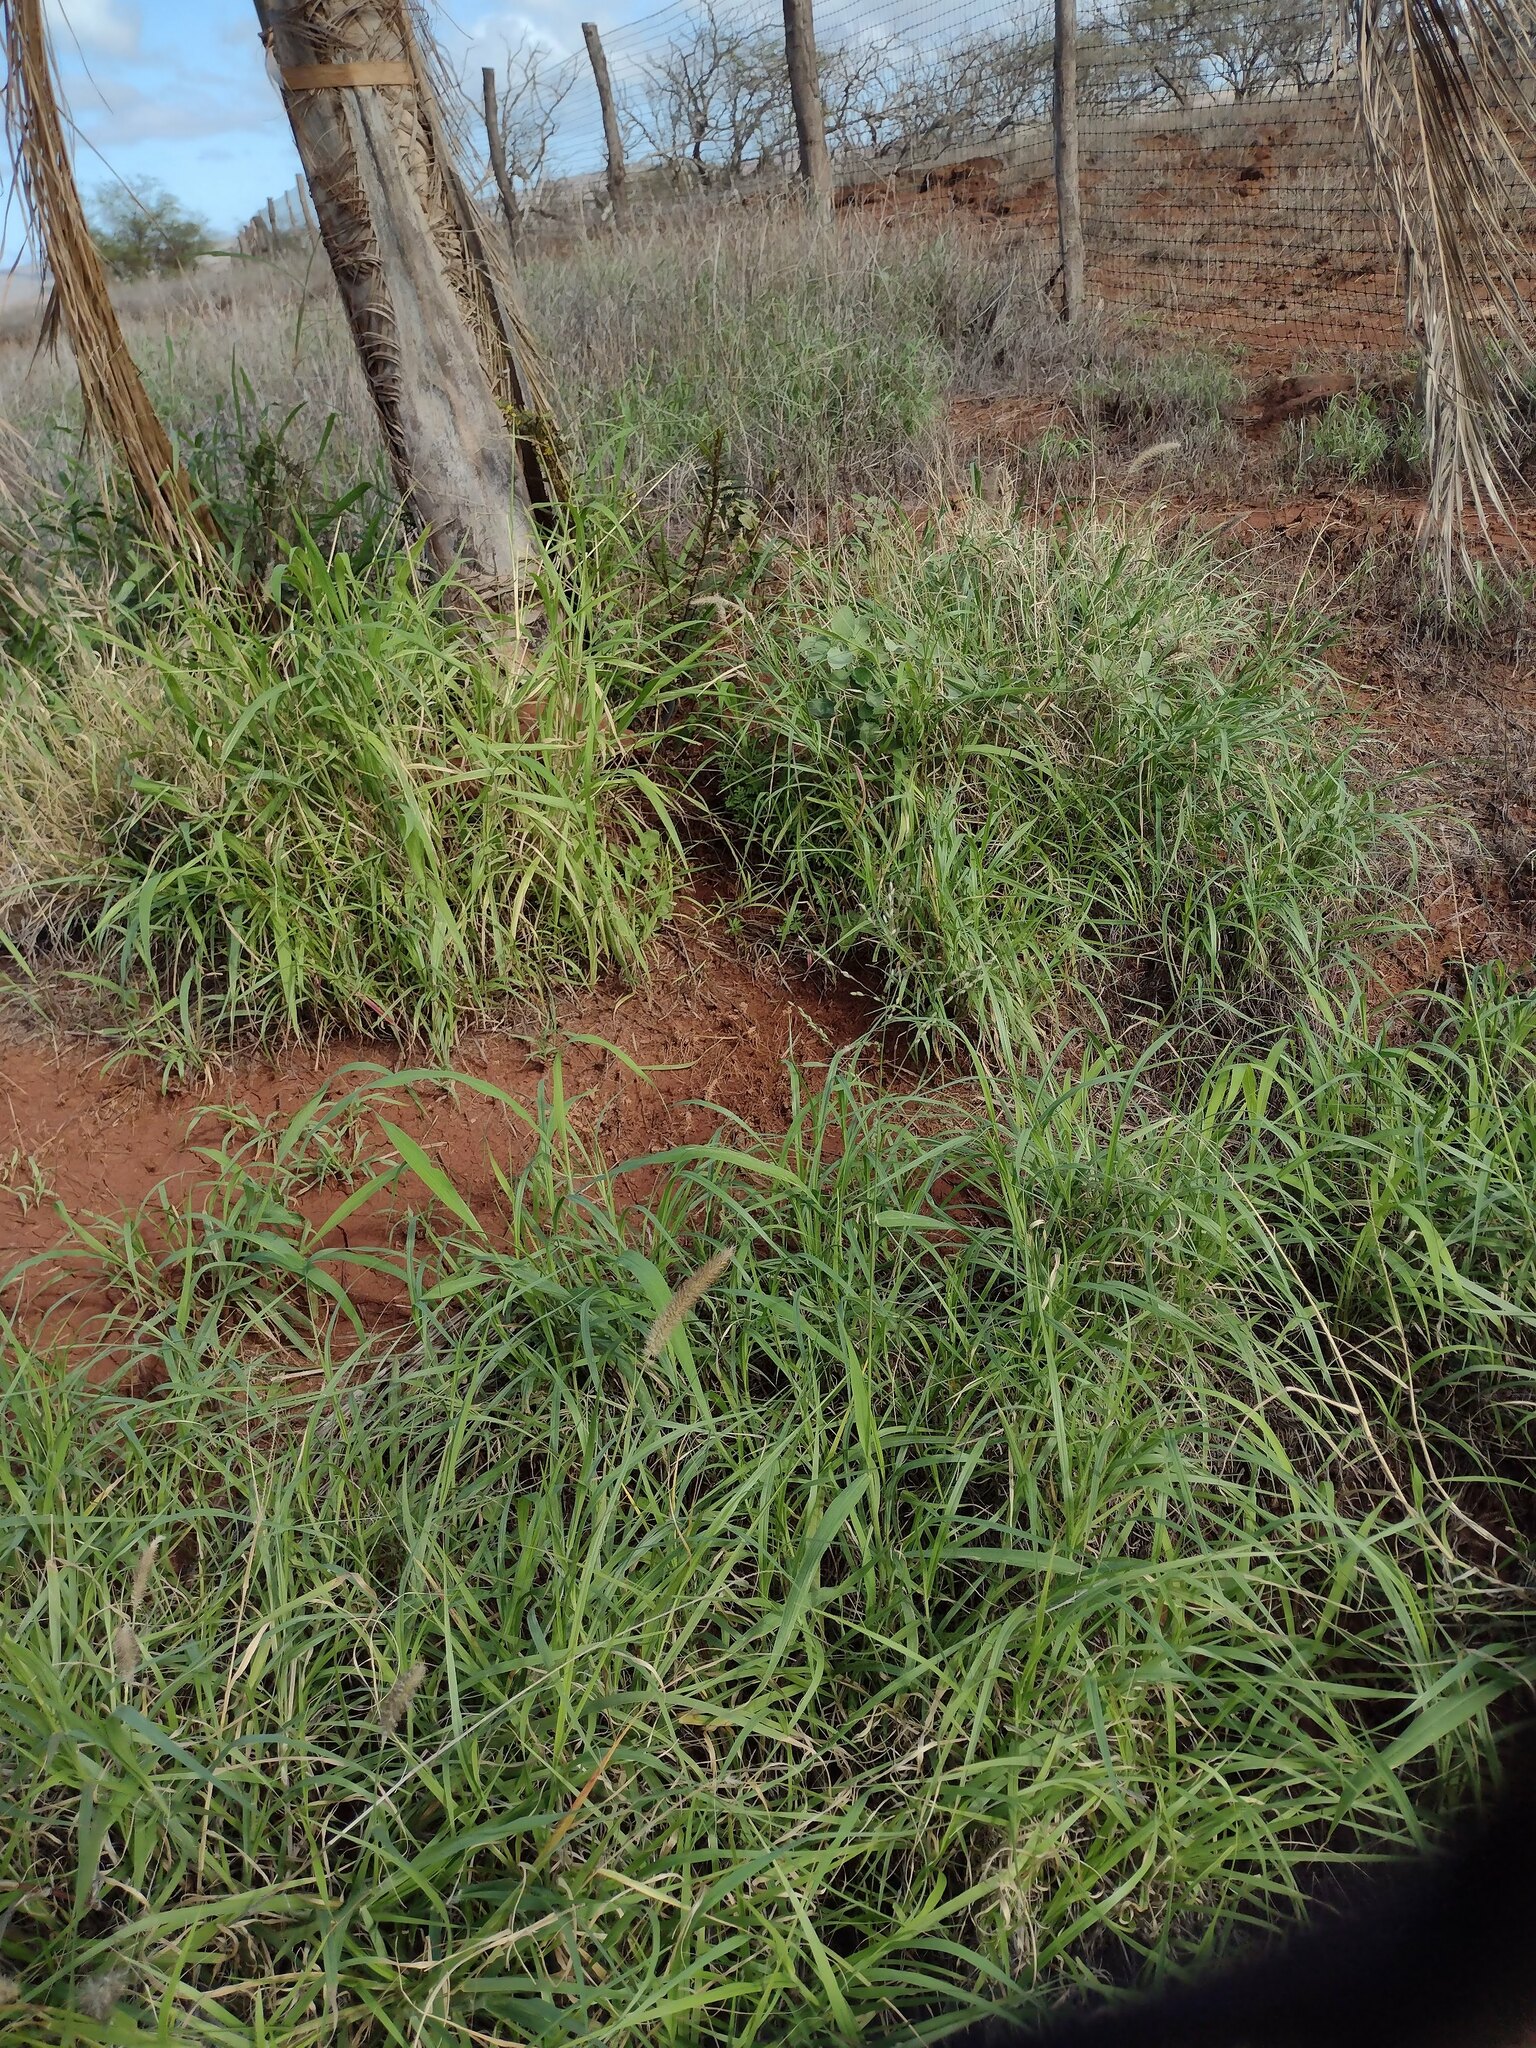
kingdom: Plantae
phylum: Tracheophyta
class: Liliopsida
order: Poales
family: Poaceae
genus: Megathyrsus
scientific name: Megathyrsus maximus
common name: Guineagrass
